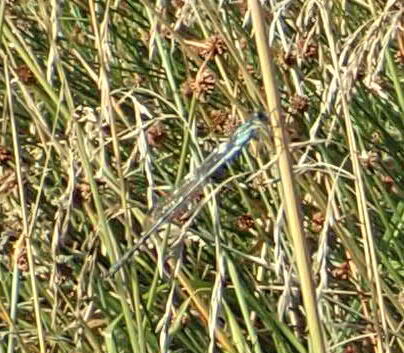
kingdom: Animalia
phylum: Arthropoda
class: Insecta
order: Odonata
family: Lestidae
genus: Austrolestes
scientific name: Austrolestes colensonis
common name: Blue damselfly
